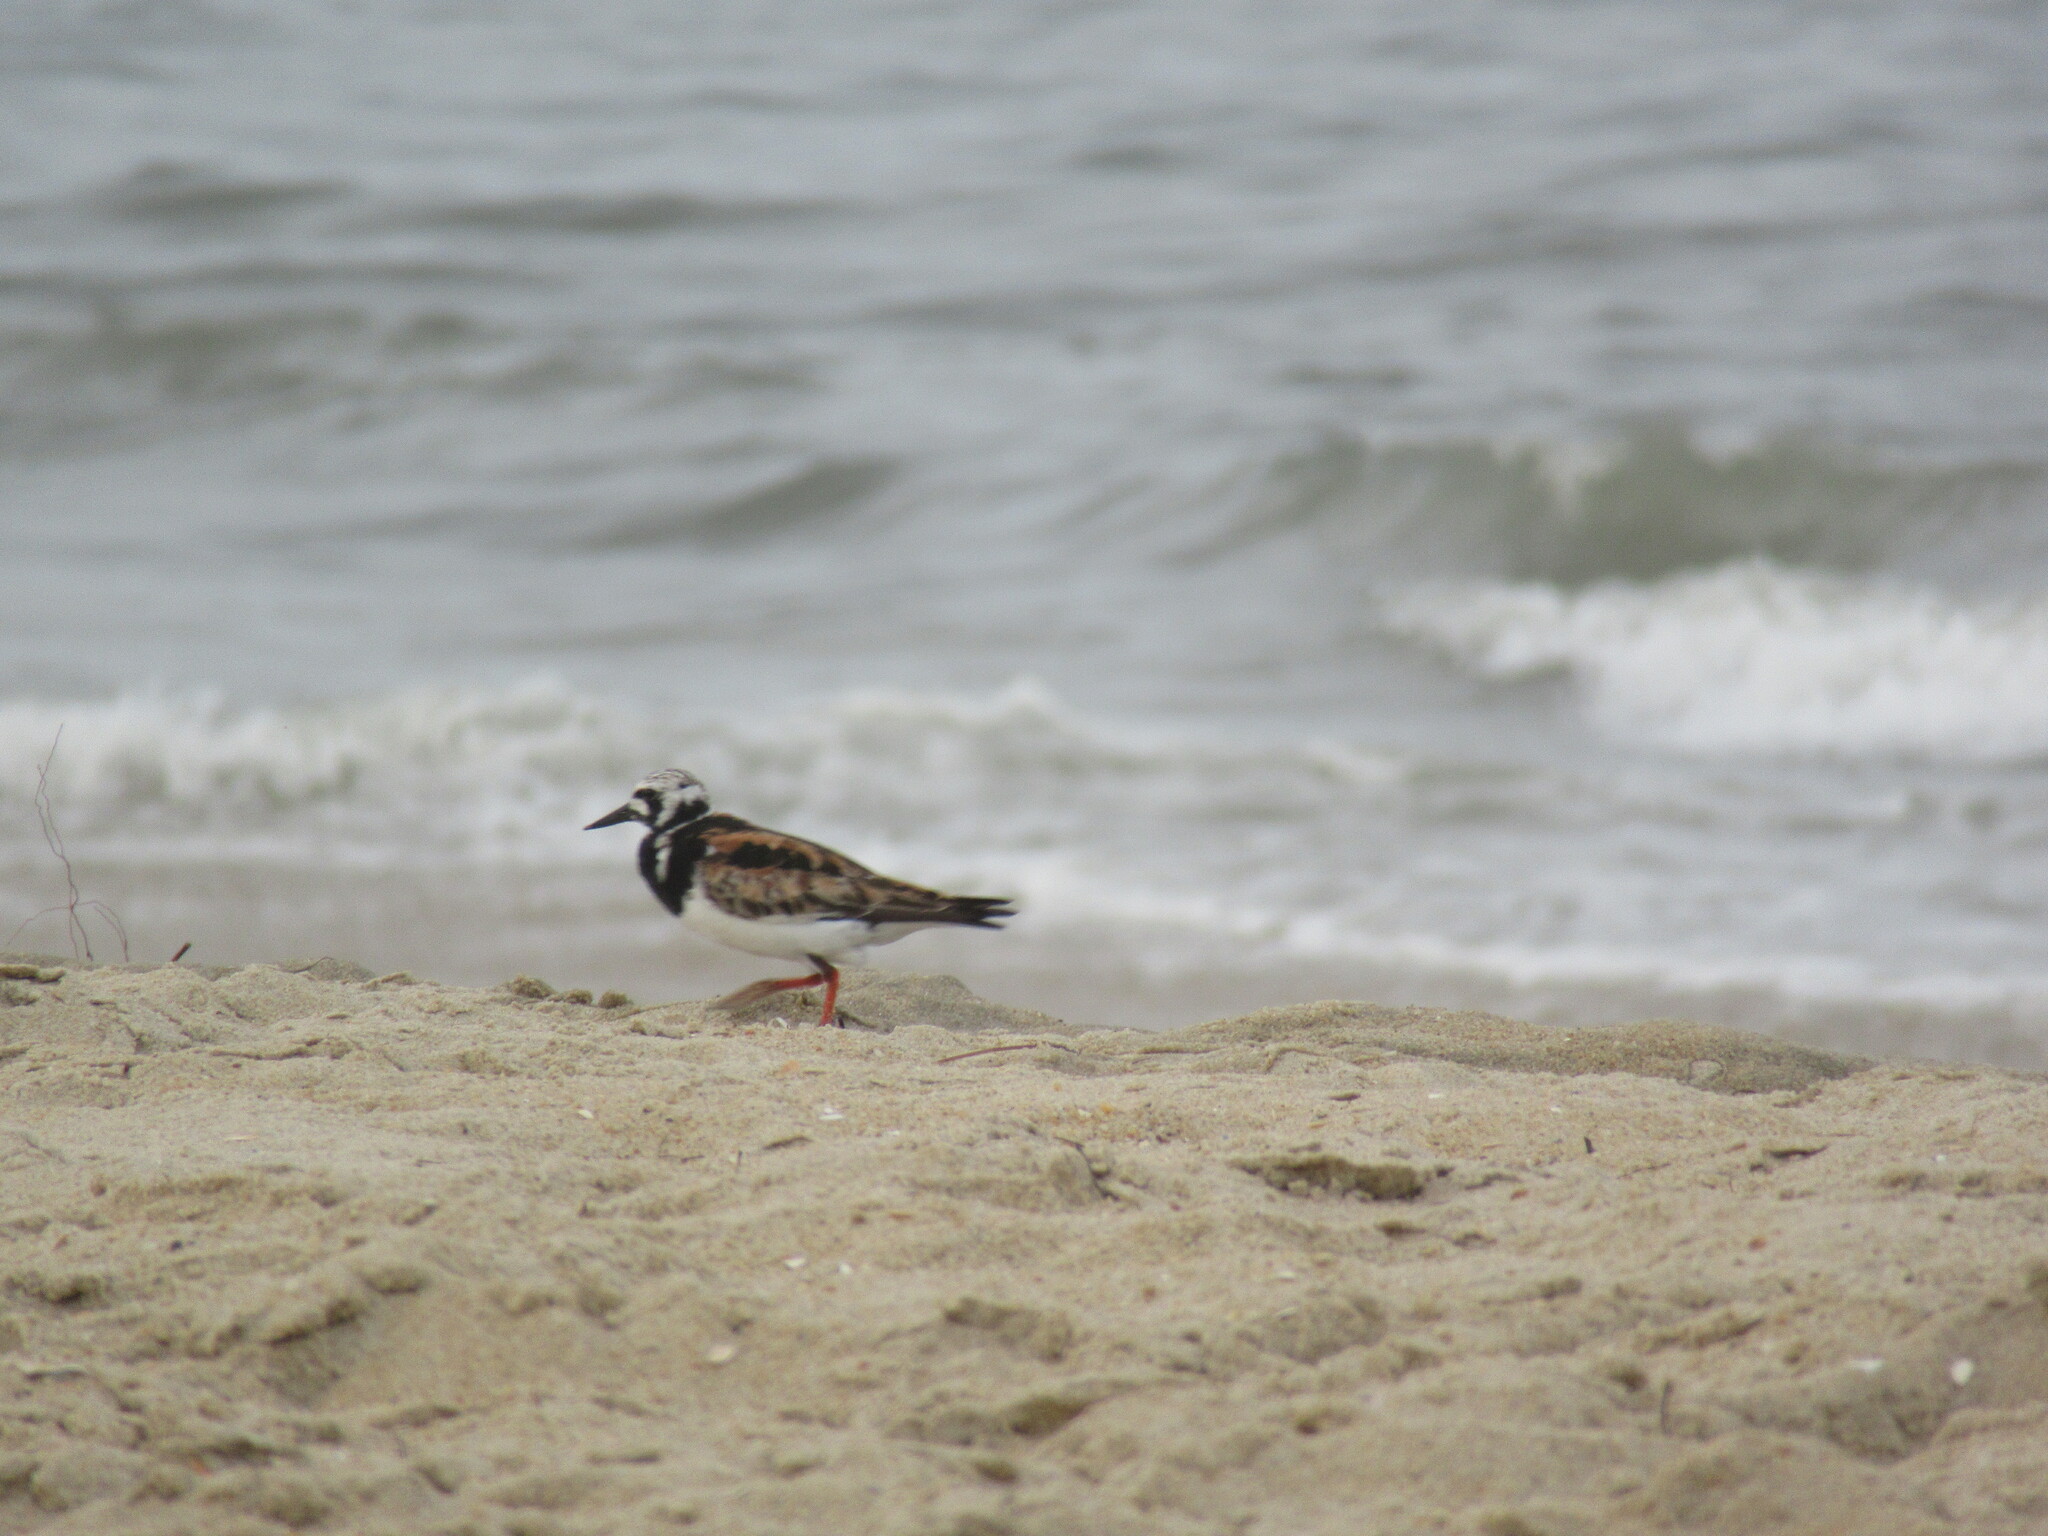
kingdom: Animalia
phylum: Chordata
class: Aves
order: Charadriiformes
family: Scolopacidae
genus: Arenaria
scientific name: Arenaria interpres
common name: Ruddy turnstone
